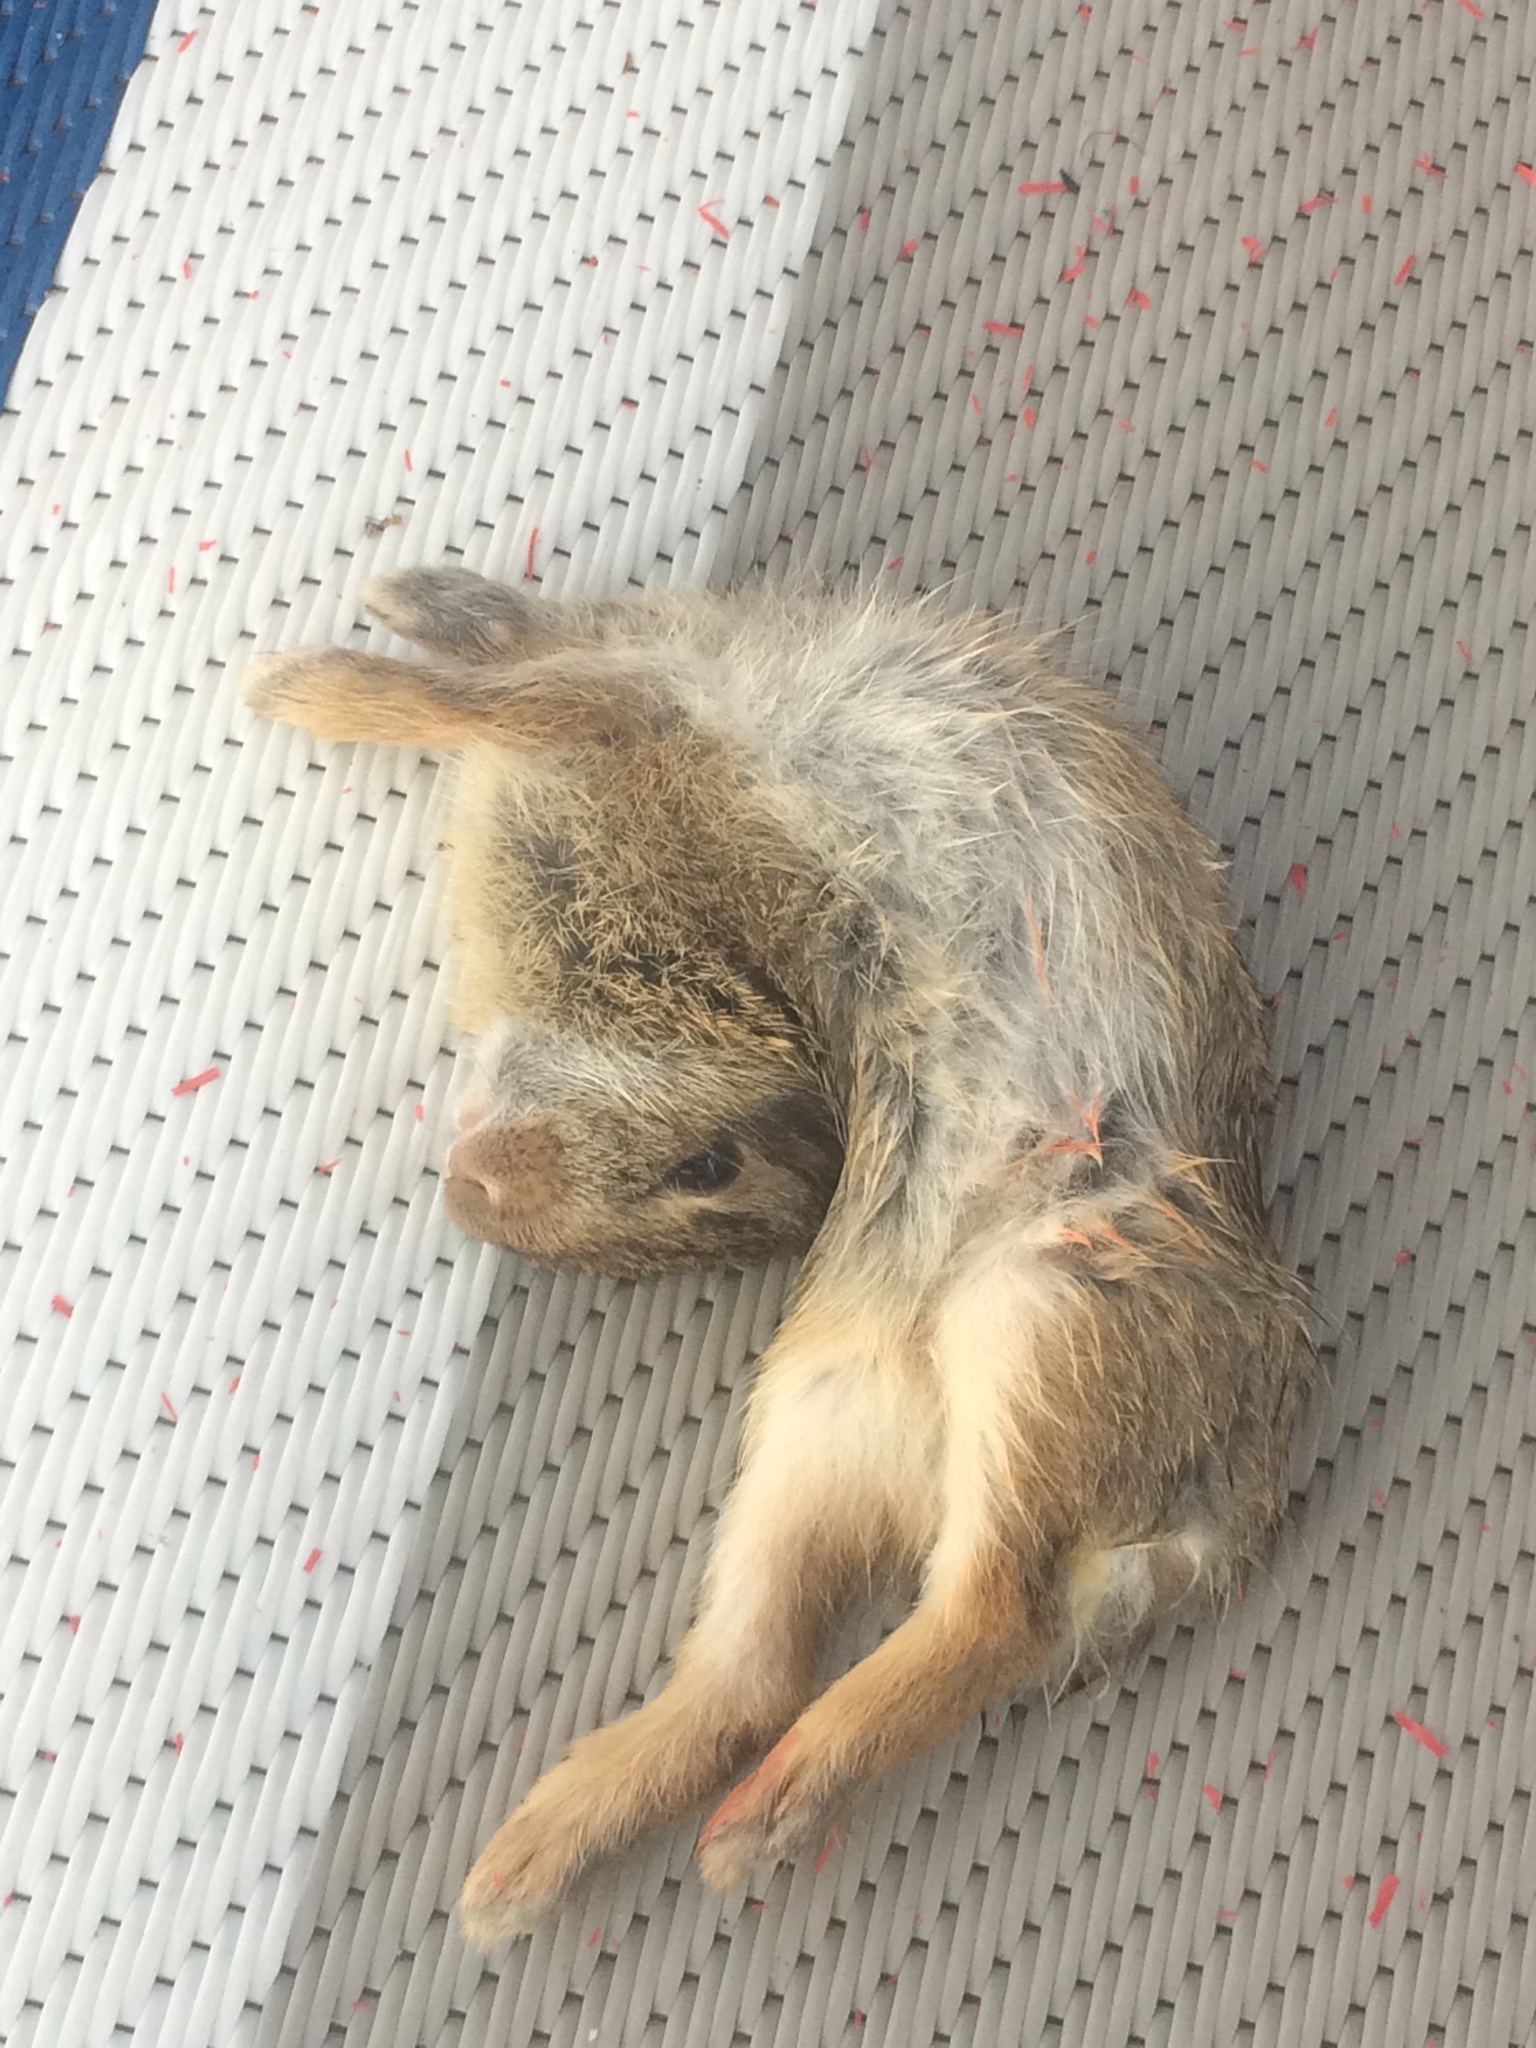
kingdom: Animalia
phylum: Chordata
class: Mammalia
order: Lagomorpha
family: Leporidae
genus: Sylvilagus
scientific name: Sylvilagus floridanus
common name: Eastern cottontail
